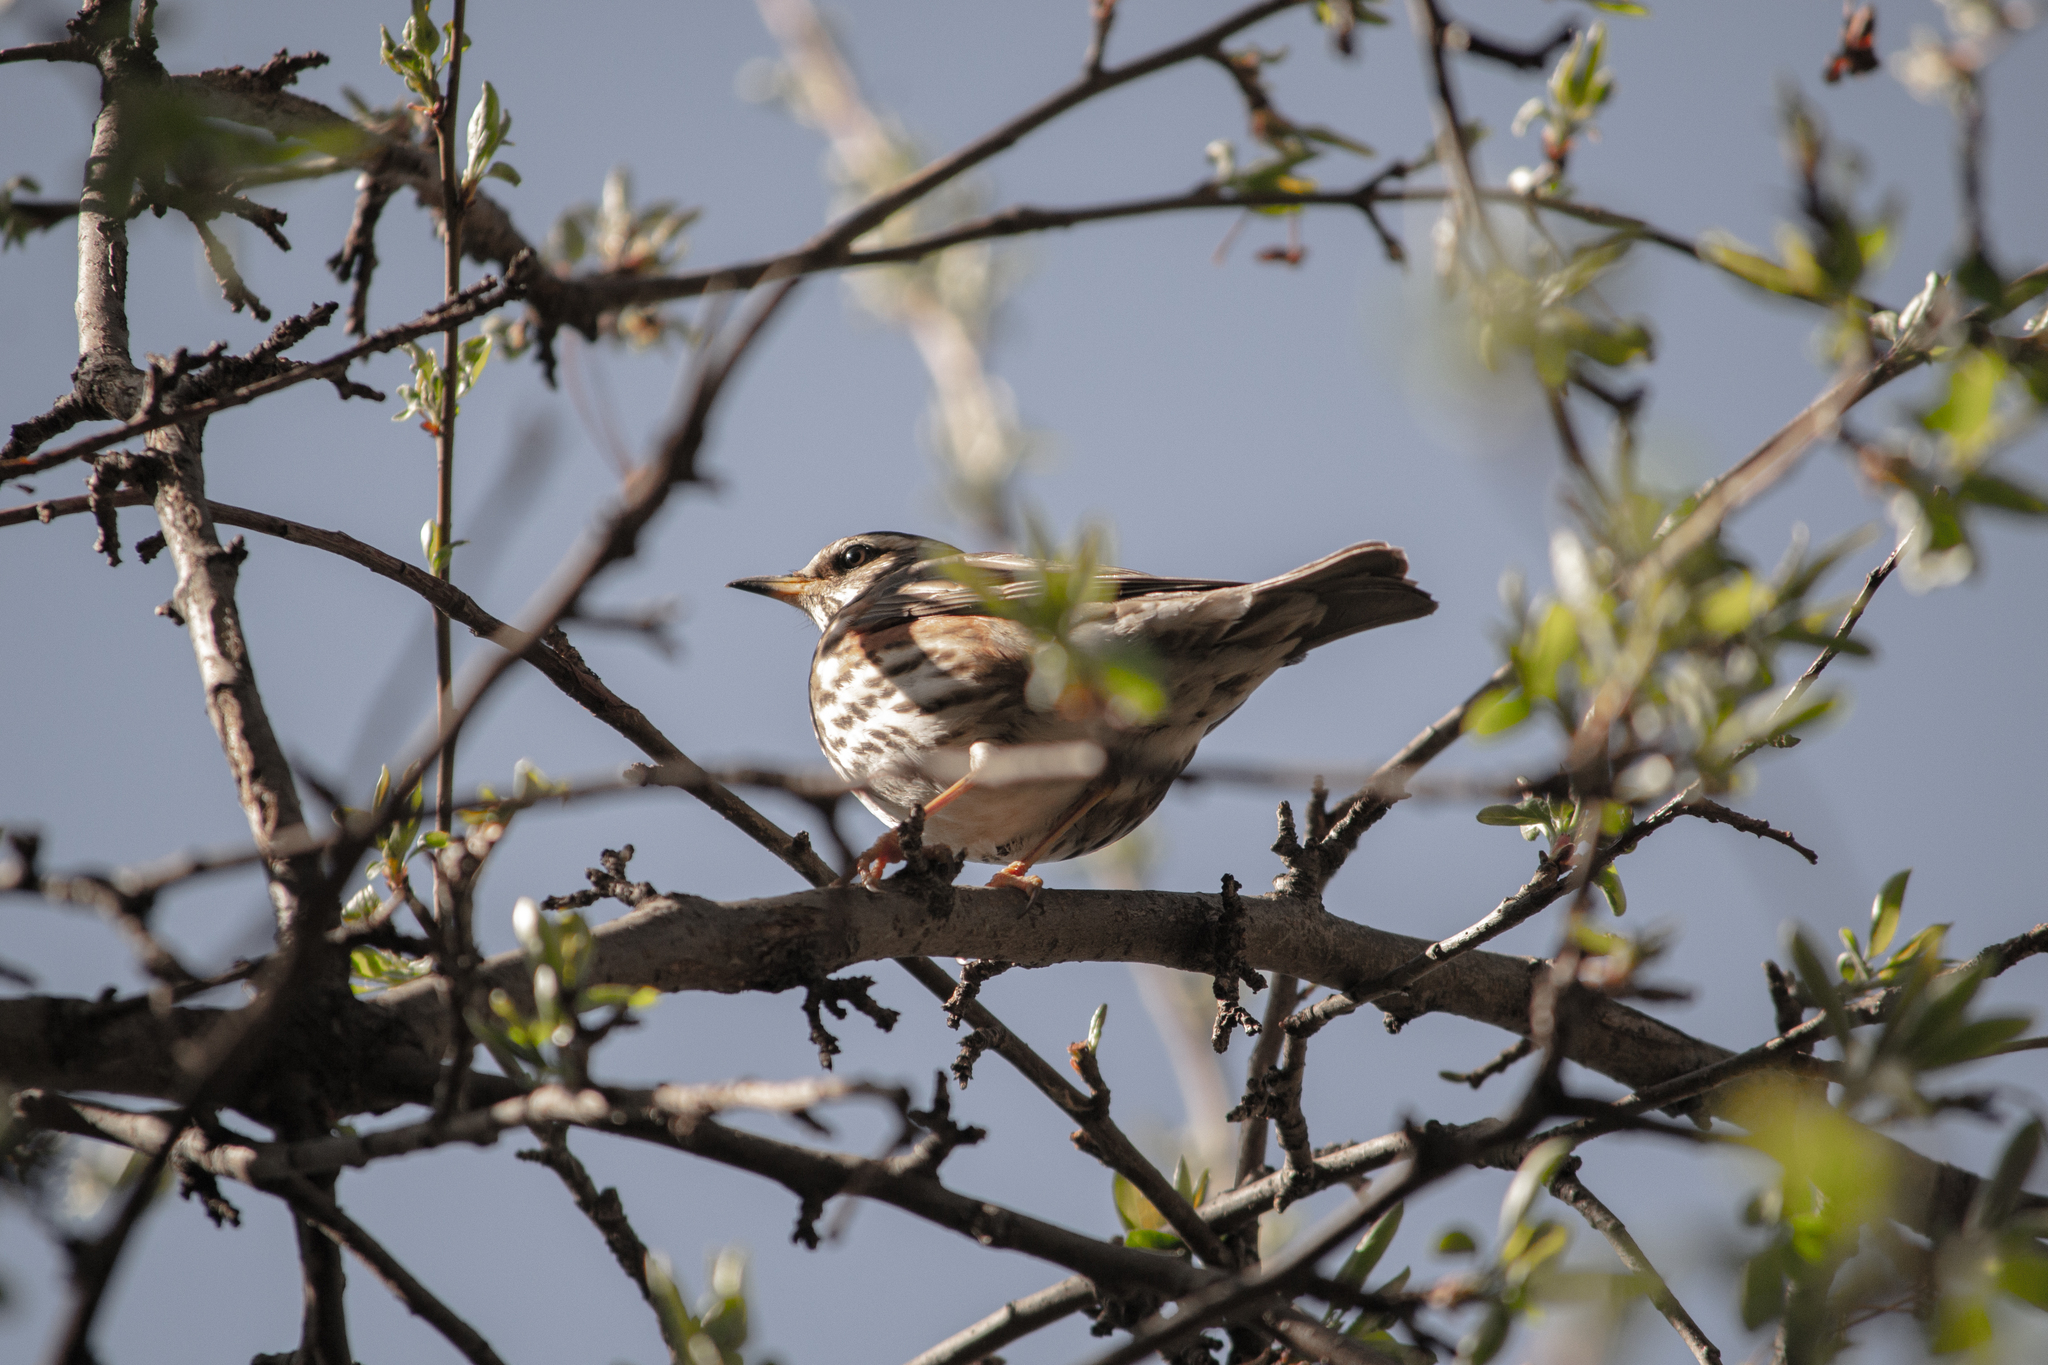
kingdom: Animalia
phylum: Chordata
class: Aves
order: Passeriformes
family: Turdidae
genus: Turdus
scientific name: Turdus iliacus
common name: Redwing
